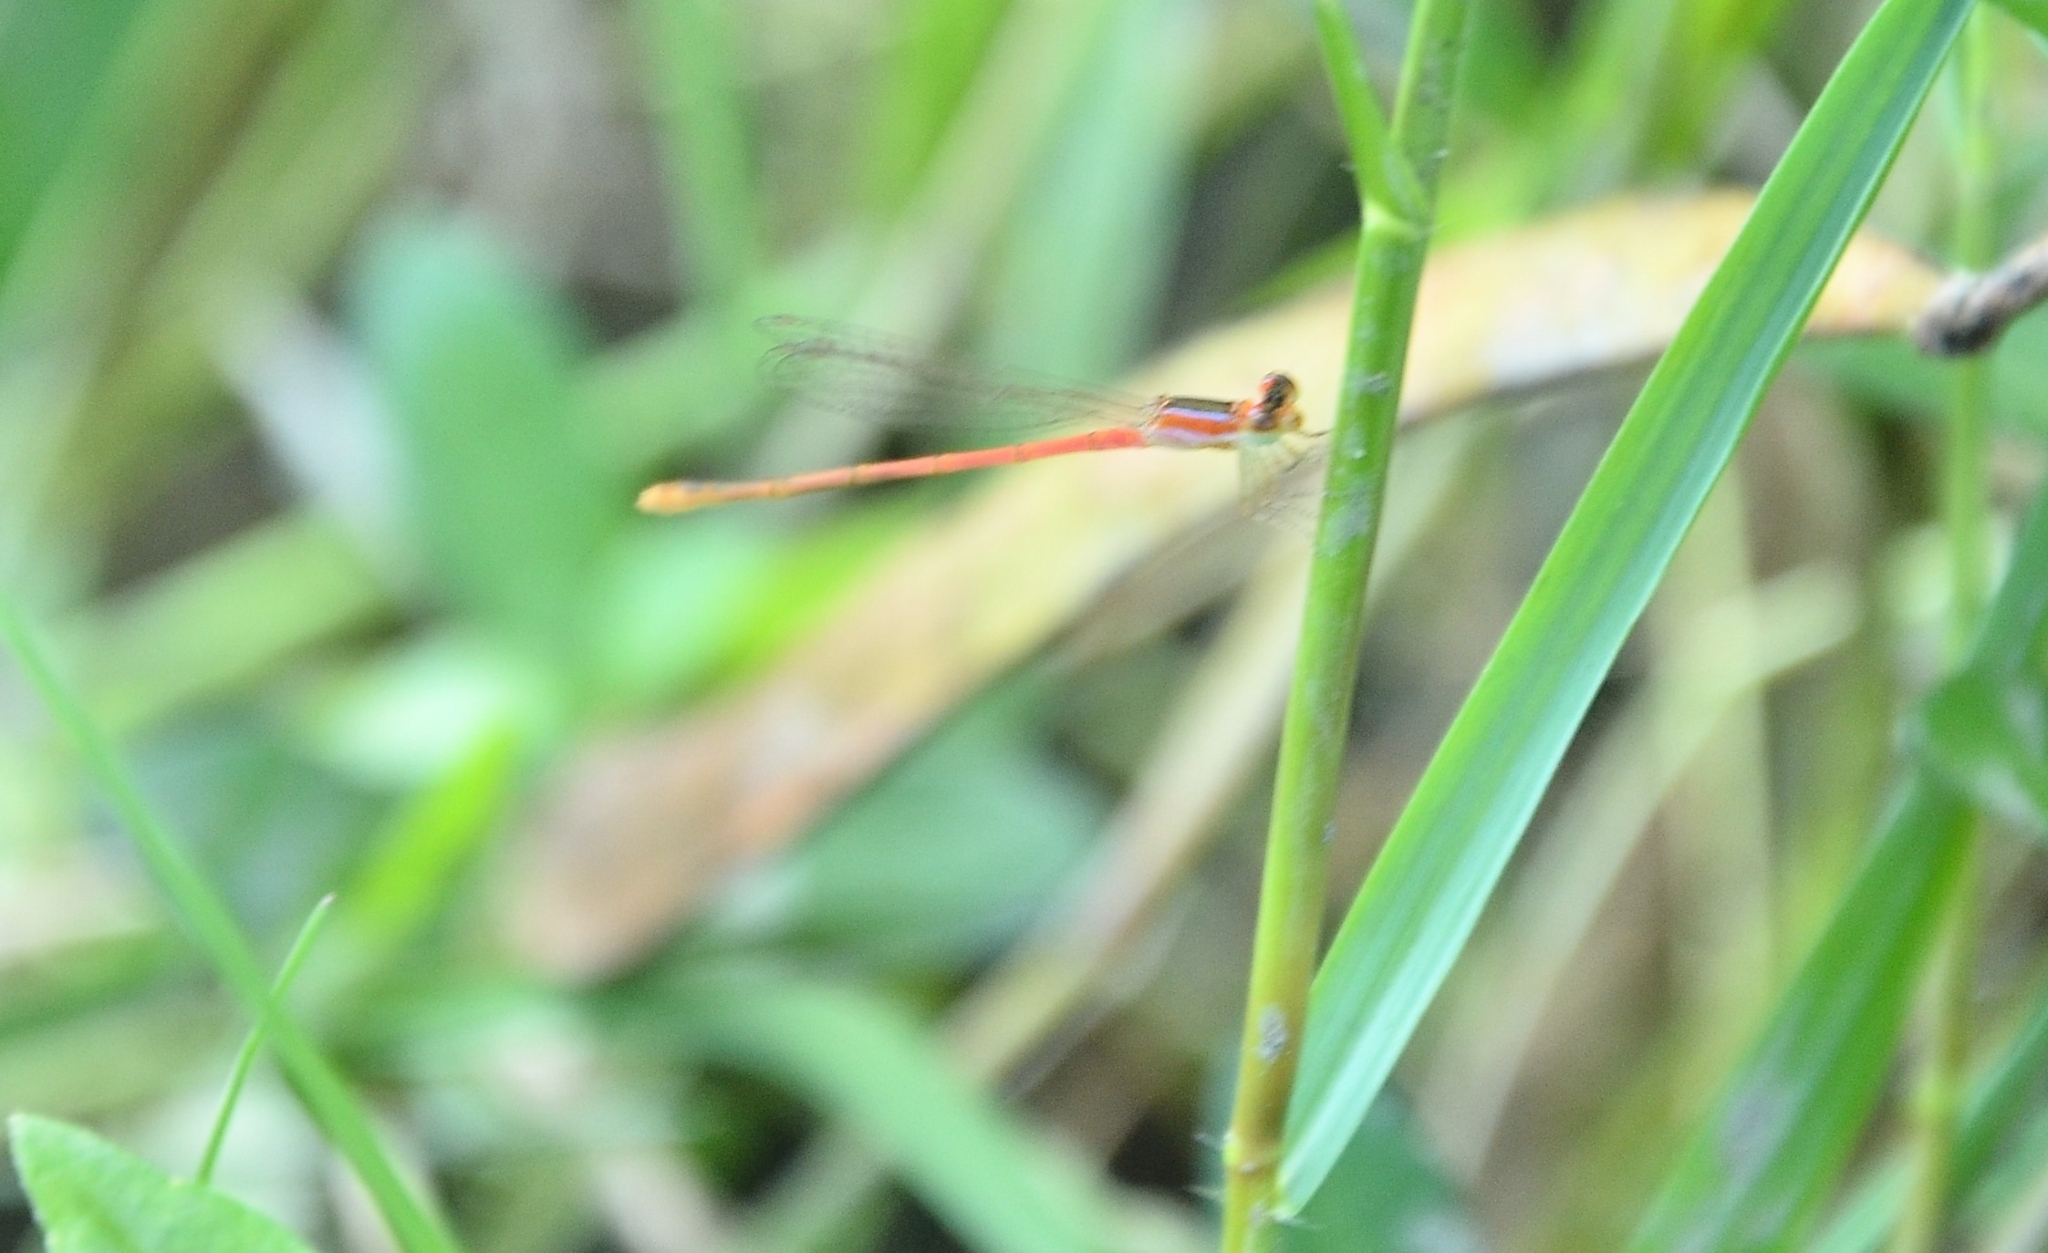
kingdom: Animalia
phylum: Arthropoda
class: Insecta
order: Odonata
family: Coenagrionidae
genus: Agriocnemis
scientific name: Agriocnemis pygmaea
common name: Pygmy wisp
